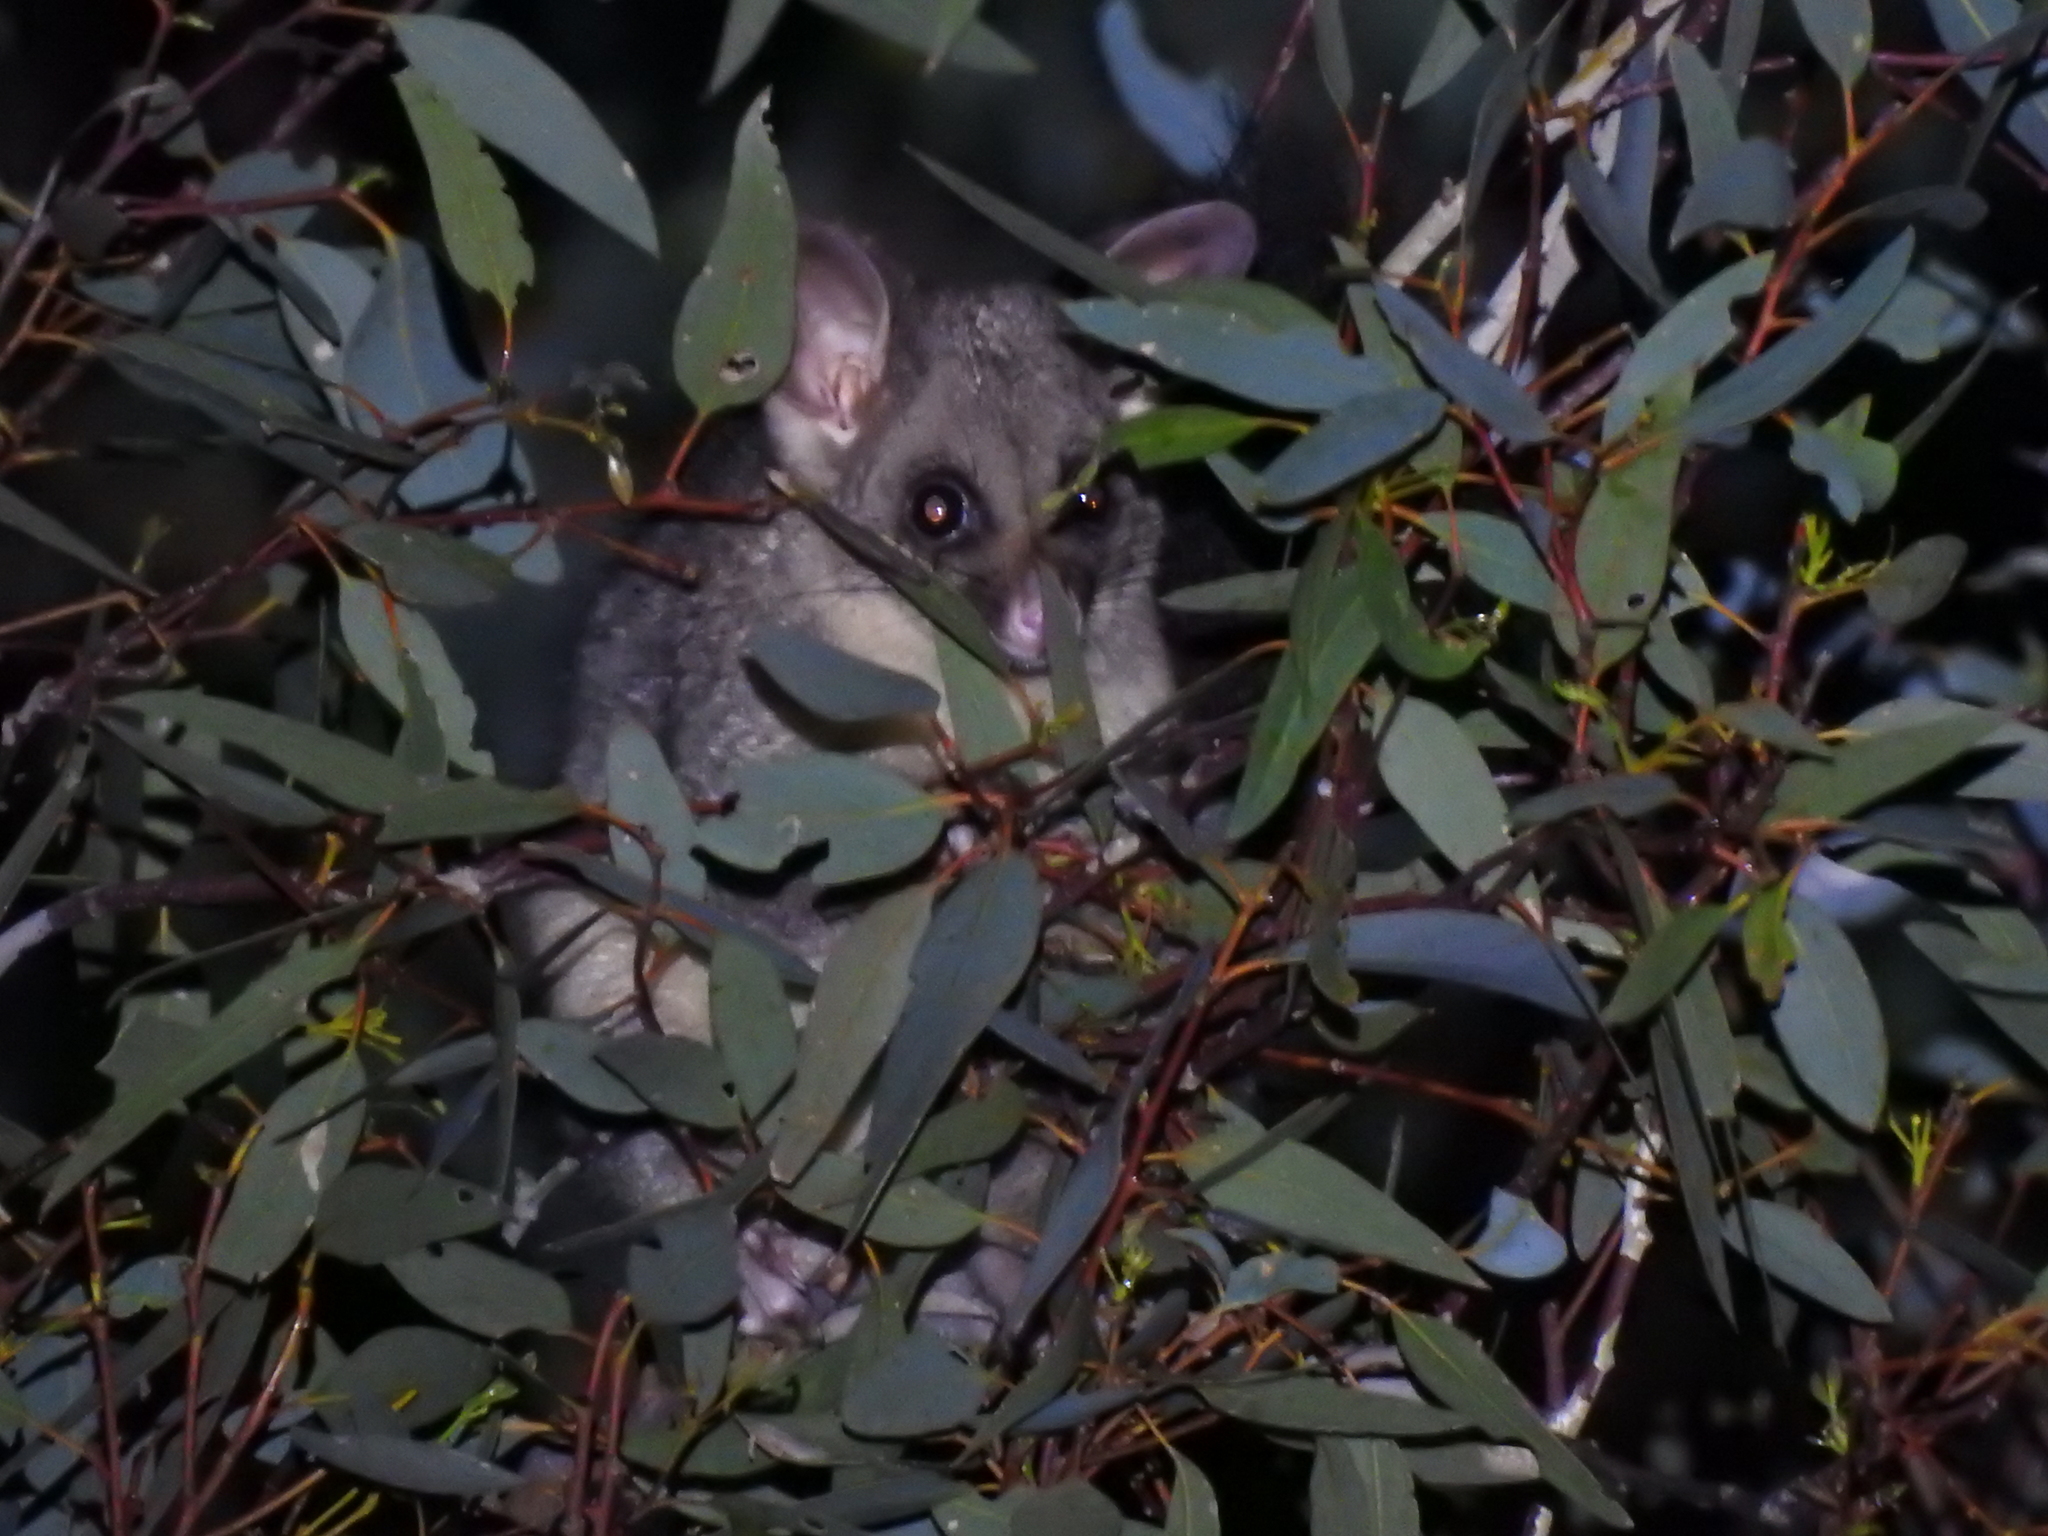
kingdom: Animalia
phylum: Chordata
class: Mammalia
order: Diprotodontia
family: Phalangeridae
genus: Trichosurus
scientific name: Trichosurus vulpecula
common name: Common brushtail
